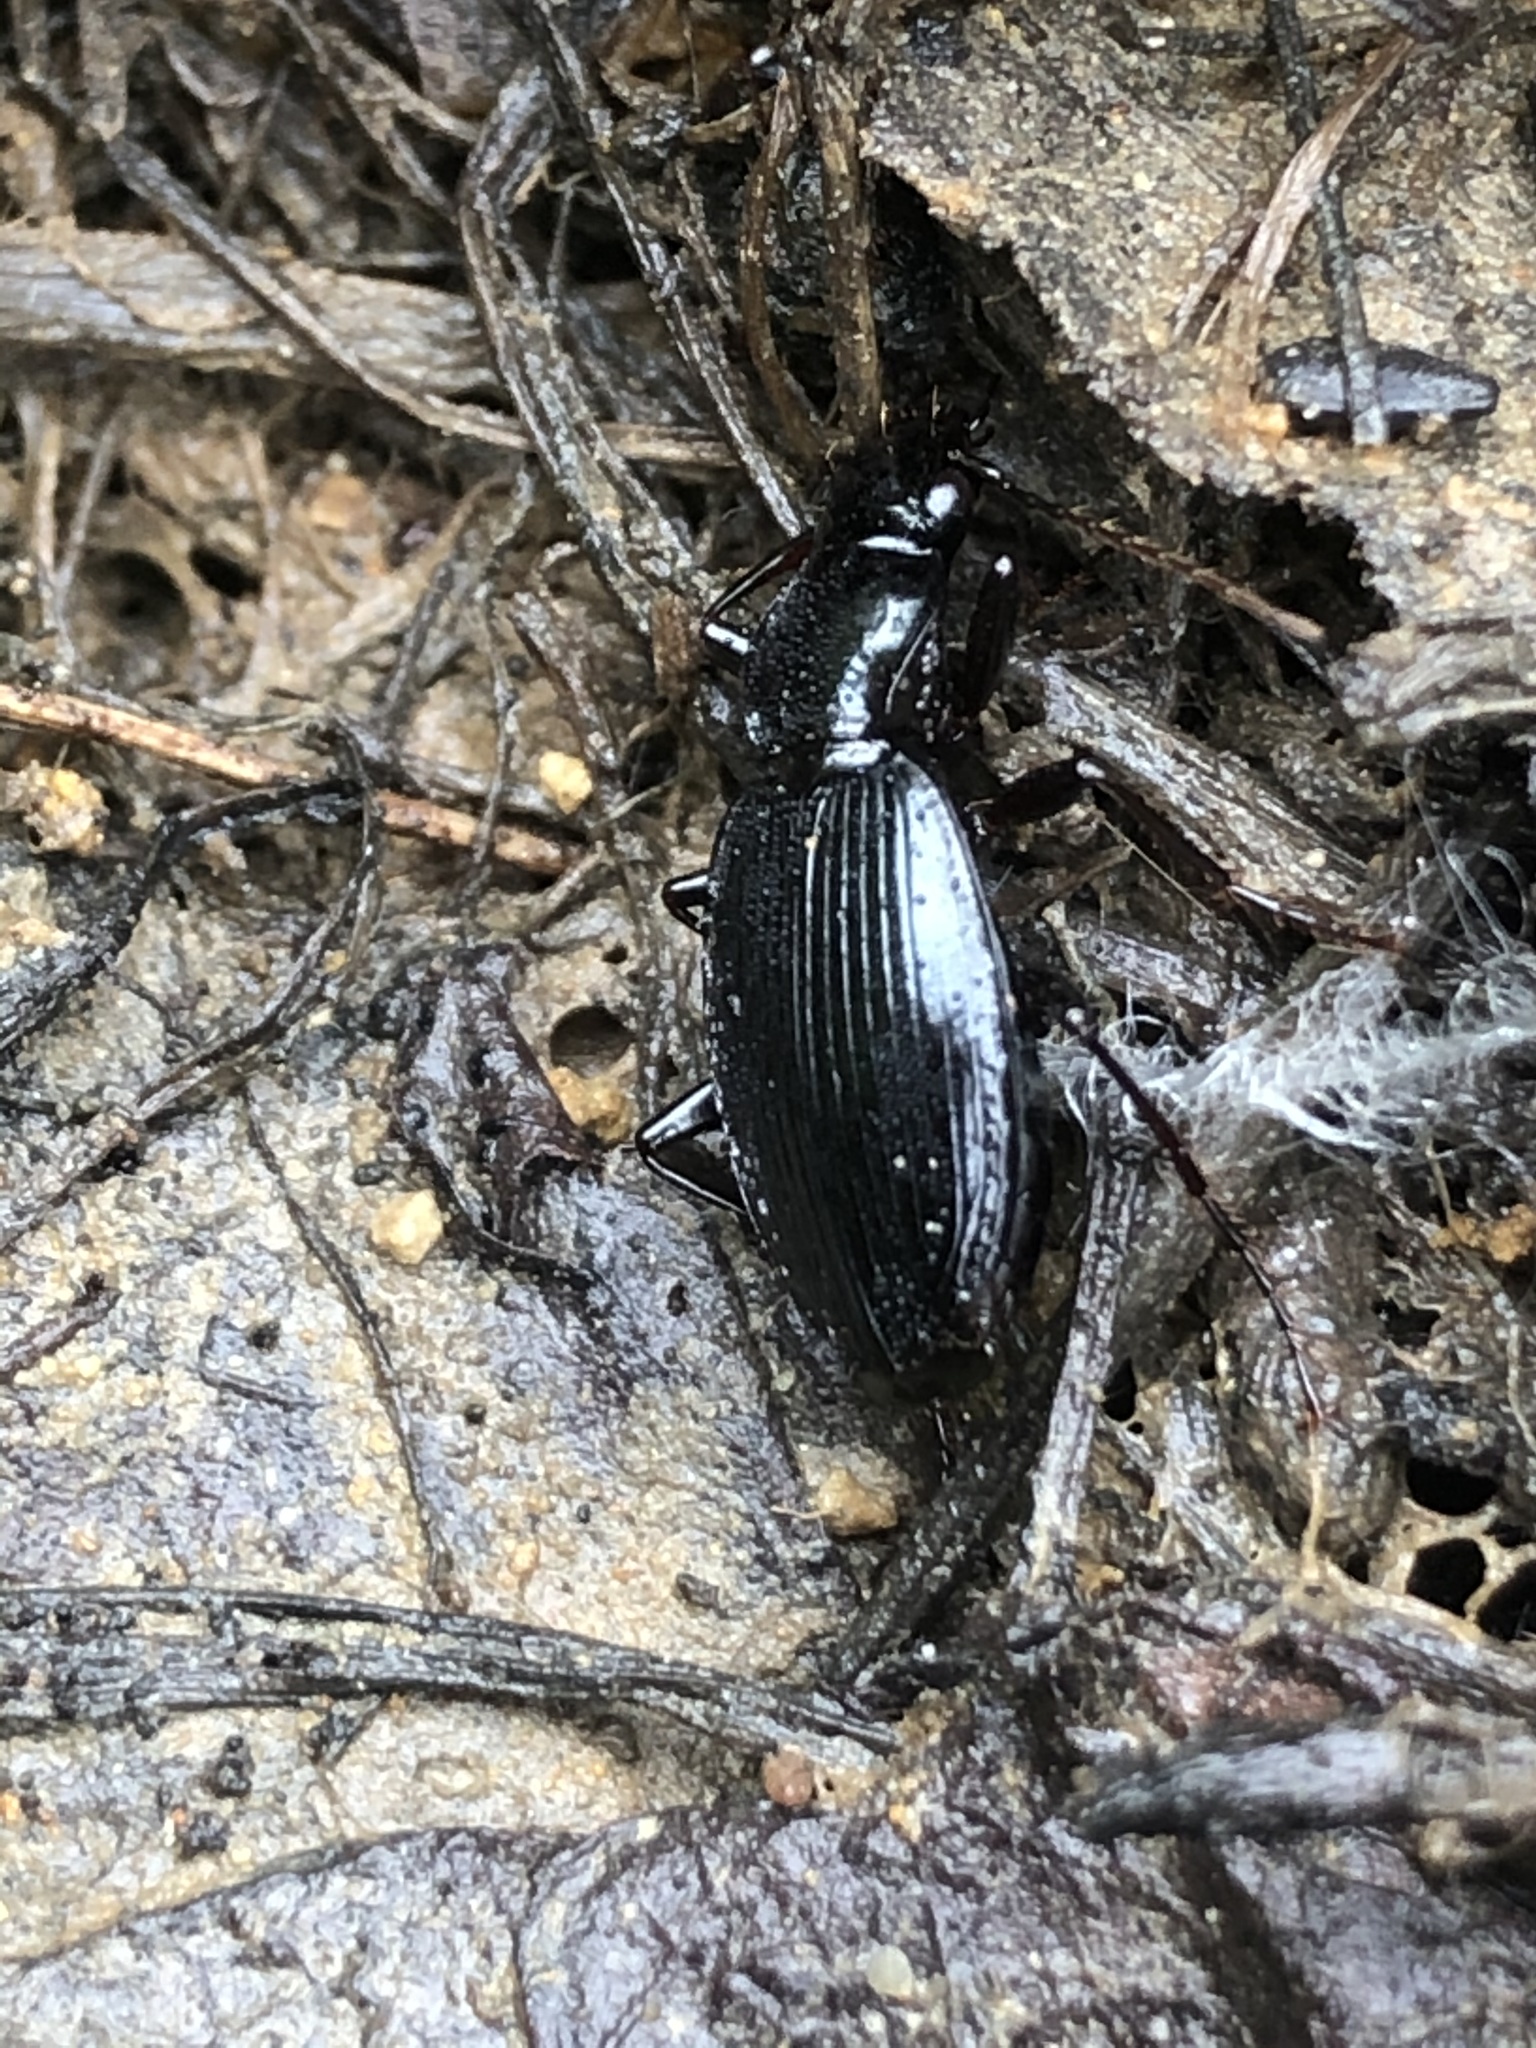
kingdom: Animalia
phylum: Arthropoda
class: Insecta
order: Coleoptera
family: Carabidae
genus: Laemostenus
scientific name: Laemostenus complanatus
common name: Cosmopolitan ground beetle
